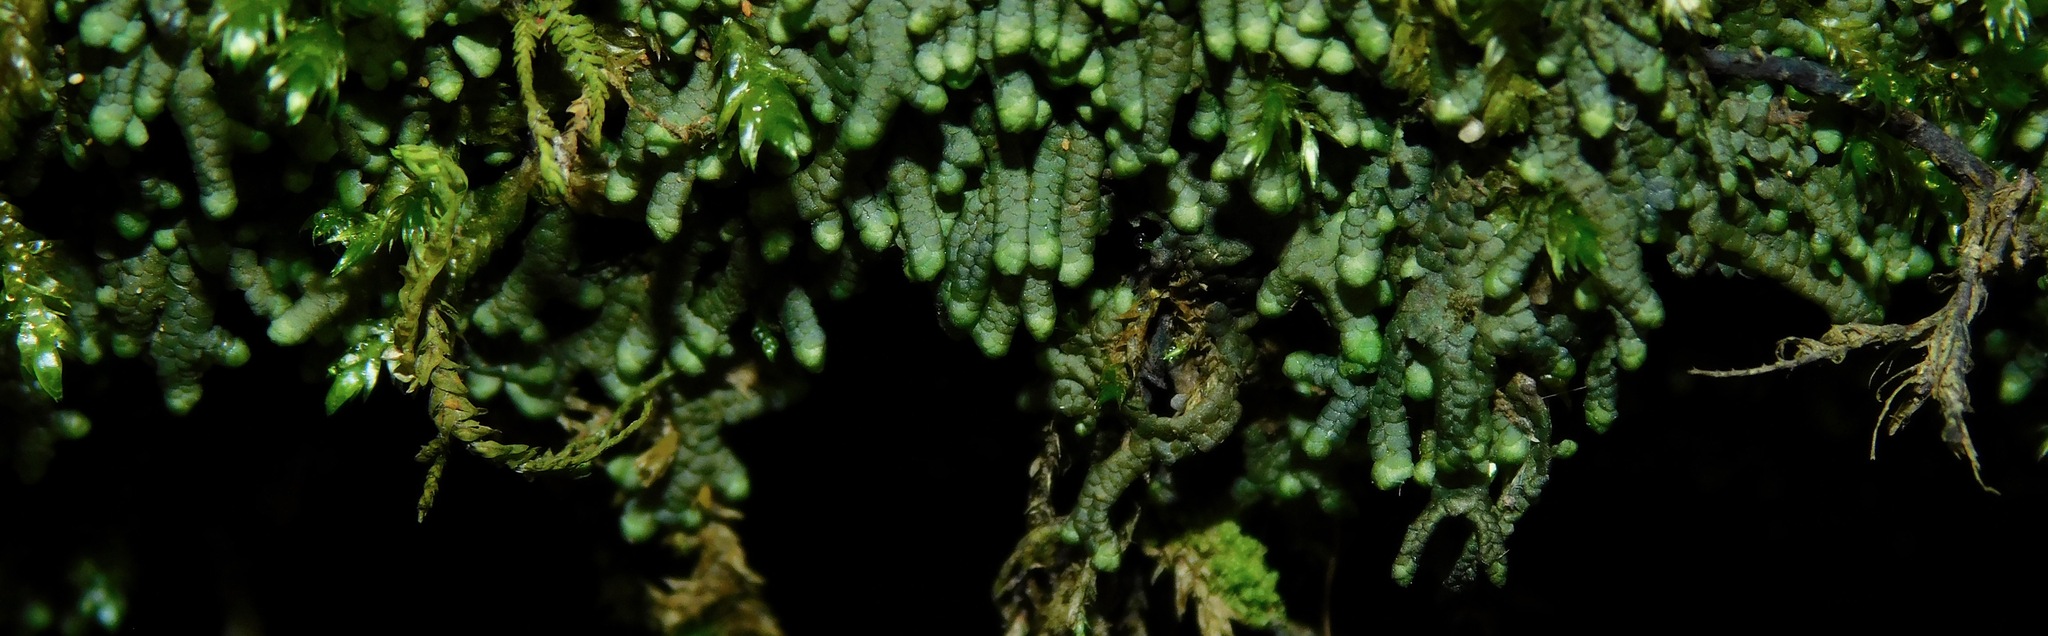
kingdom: Plantae
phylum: Marchantiophyta
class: Jungermanniopsida
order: Porellales
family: Jubulaceae
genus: Jubula
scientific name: Jubula hutchinsiae
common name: Hutchins' hollywort
